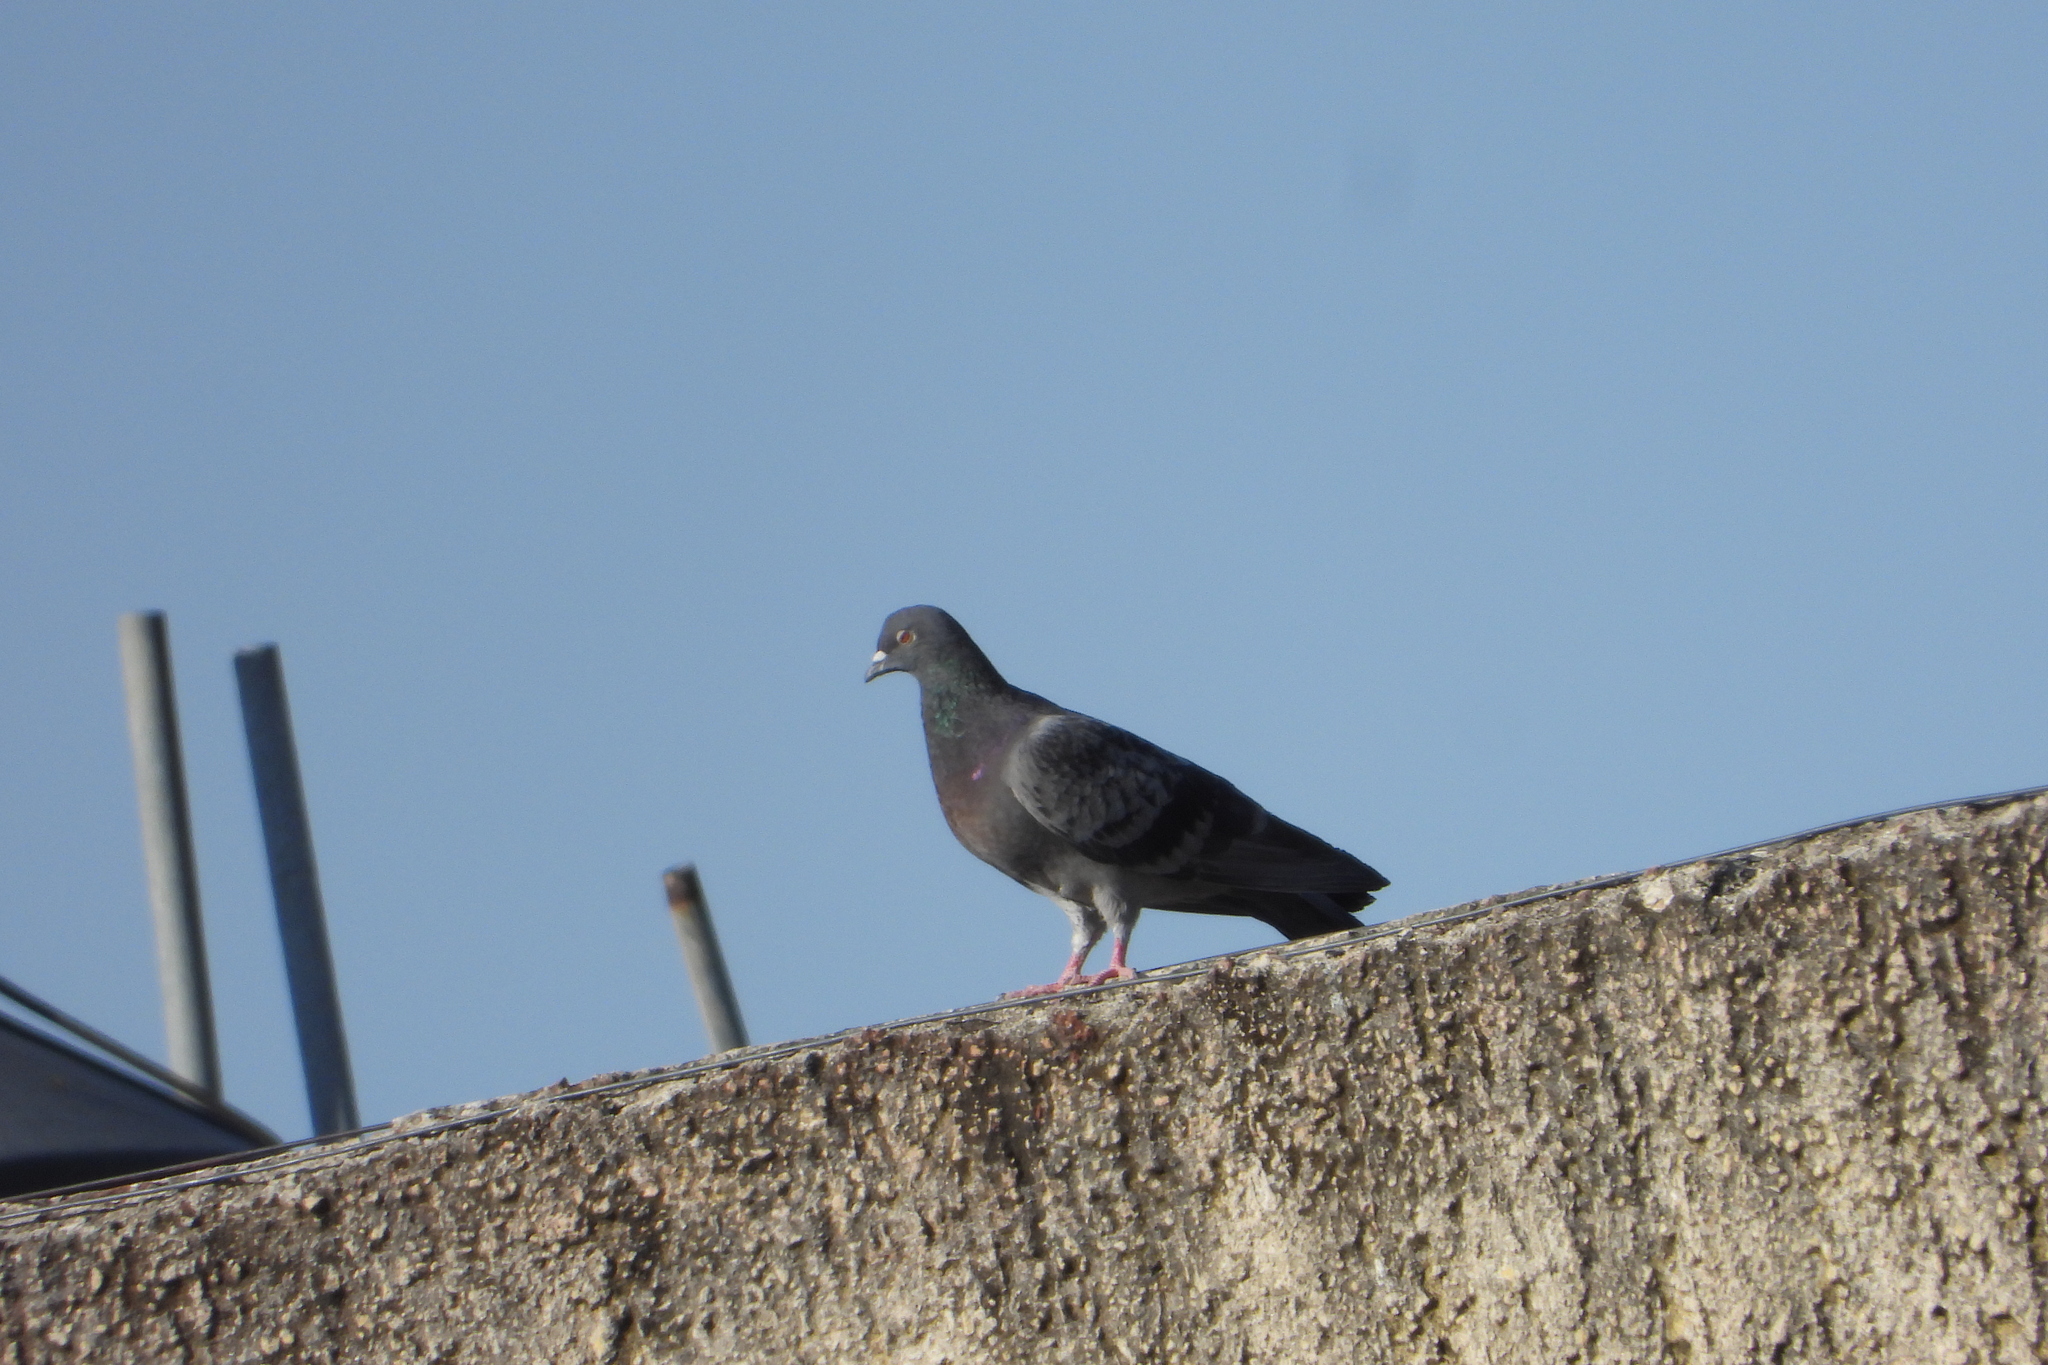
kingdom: Animalia
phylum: Chordata
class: Aves
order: Columbiformes
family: Columbidae
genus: Columba
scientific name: Columba livia
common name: Rock pigeon
